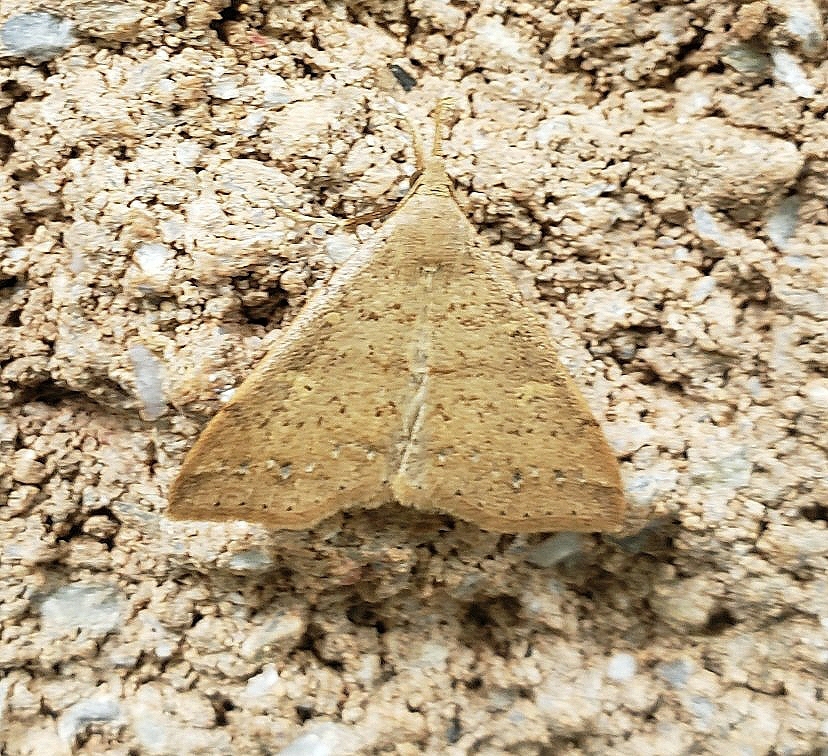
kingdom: Animalia
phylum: Arthropoda
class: Insecta
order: Lepidoptera
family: Erebidae
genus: Renia
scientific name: Renia salusalis
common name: Dotted renia moth
